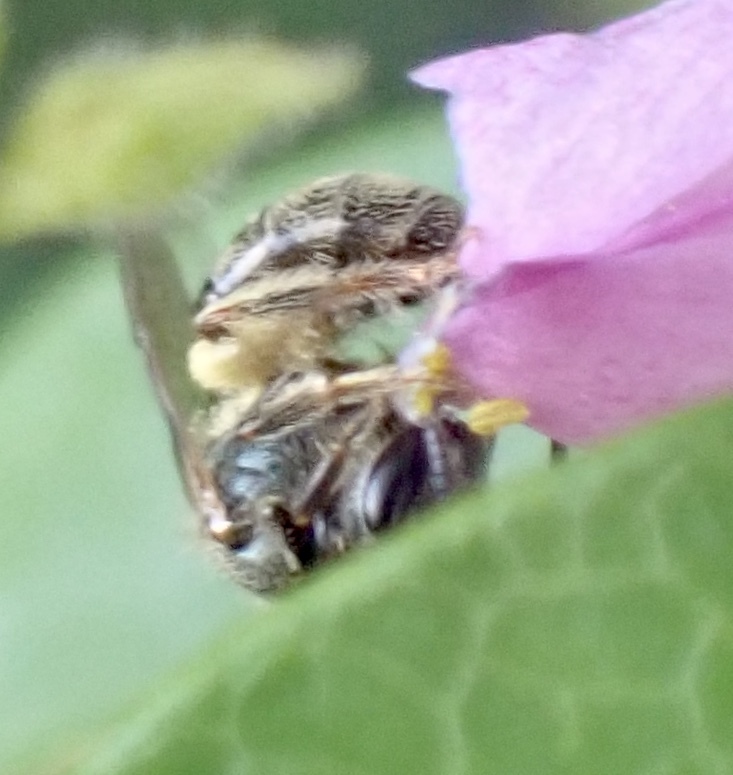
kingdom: Animalia
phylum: Arthropoda
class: Insecta
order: Hymenoptera
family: Halictidae
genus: Dialictus
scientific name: Dialictus
